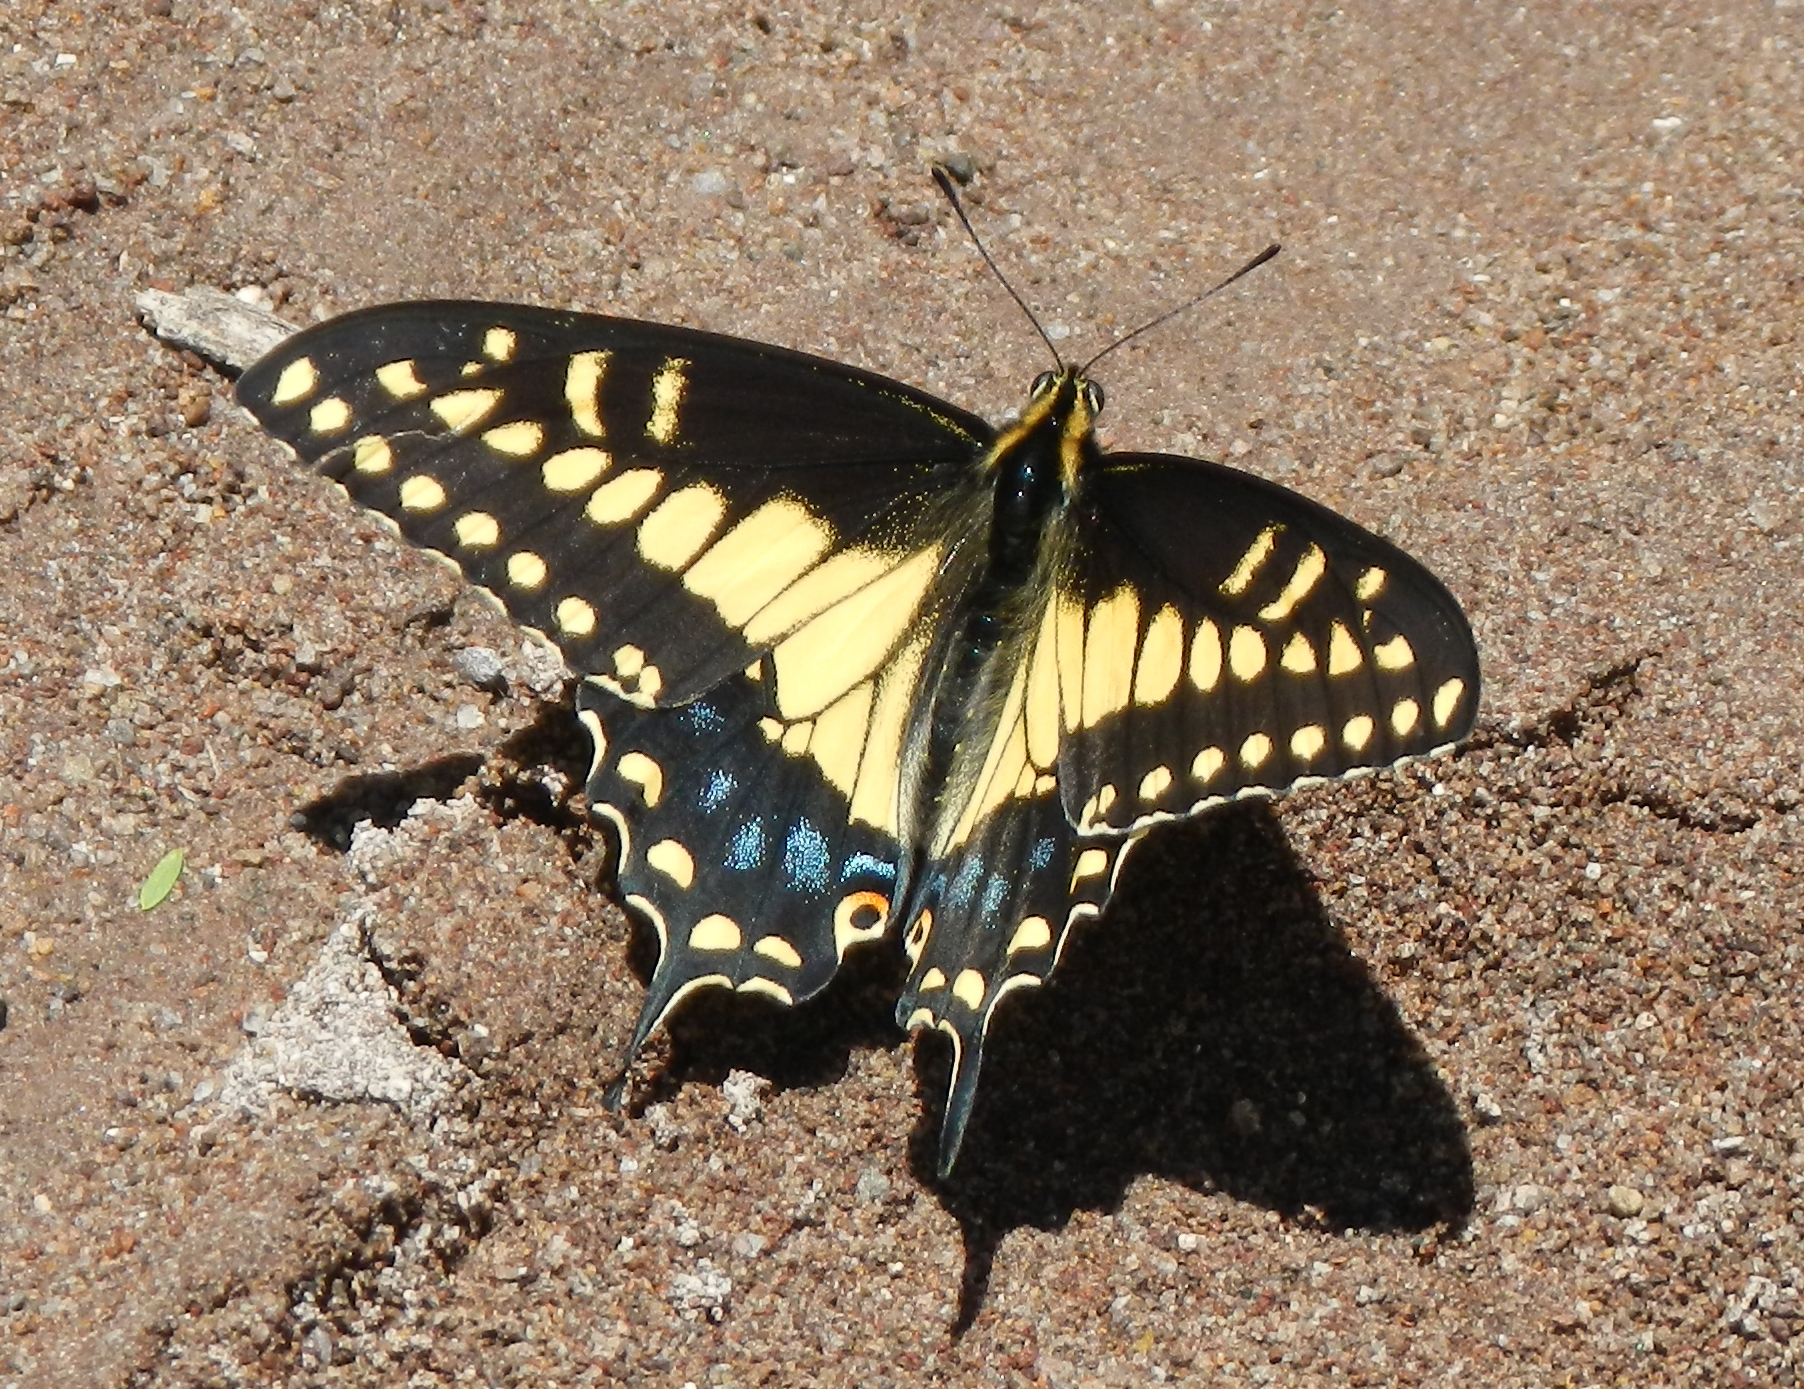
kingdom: Animalia
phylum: Arthropoda
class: Insecta
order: Lepidoptera
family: Papilionidae
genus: Papilio
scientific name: Papilio polyxenes
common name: Black swallowtail
